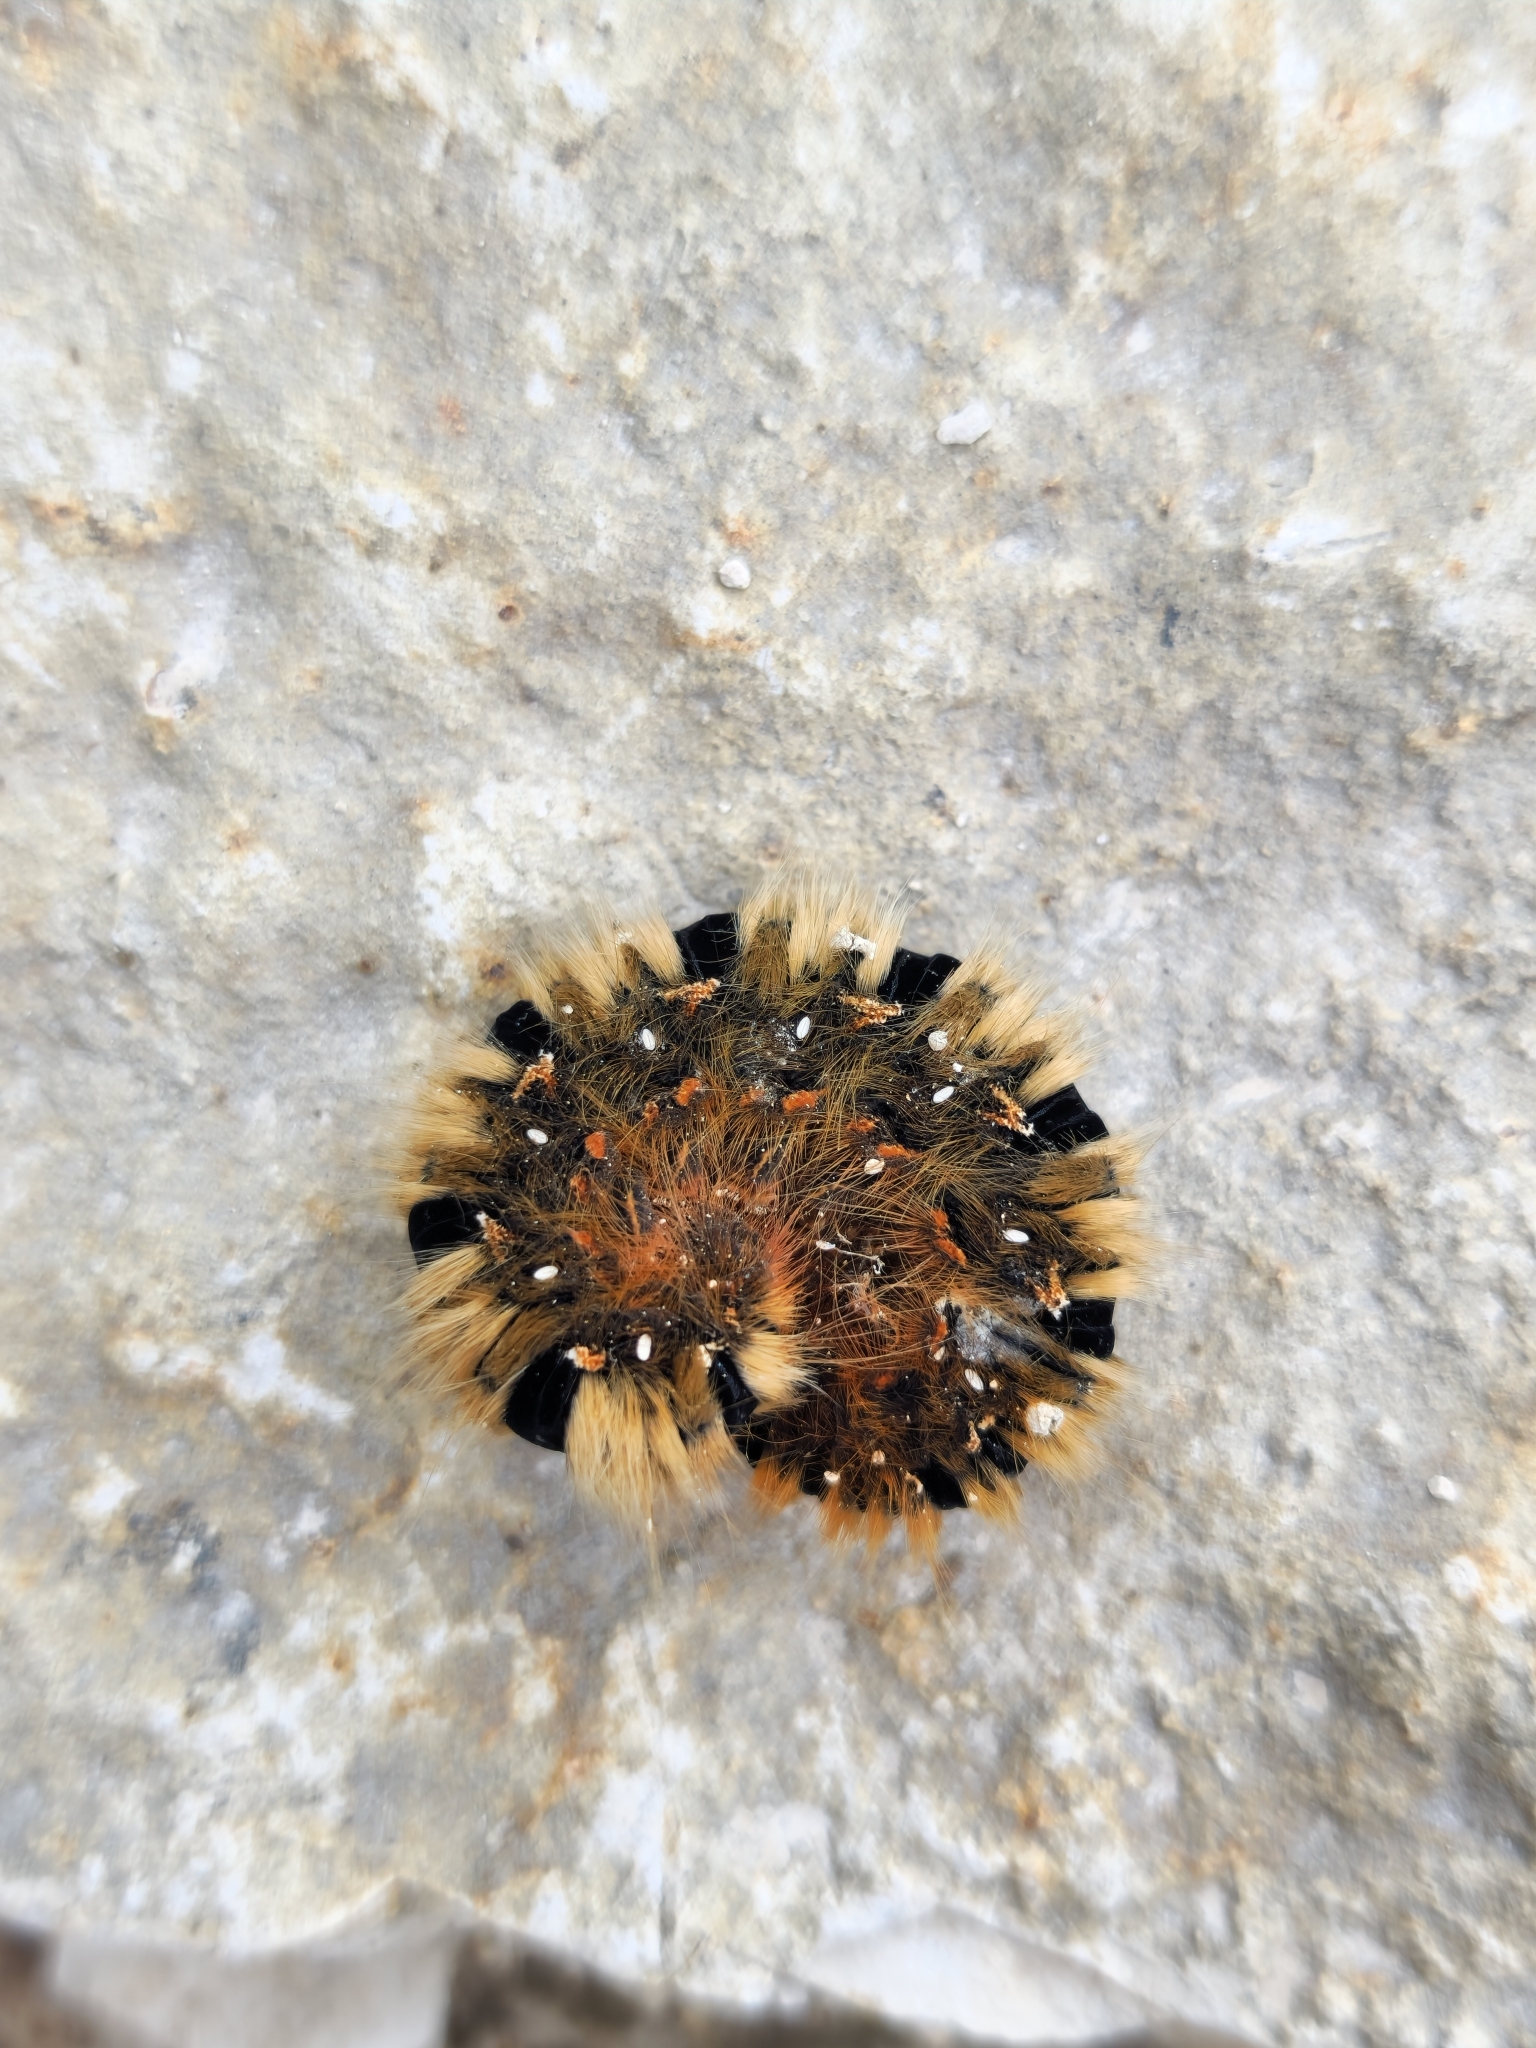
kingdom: Animalia
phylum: Arthropoda
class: Insecta
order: Lepidoptera
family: Lasiocampidae
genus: Lasiocampa
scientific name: Lasiocampa quercus
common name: Oak eggar
